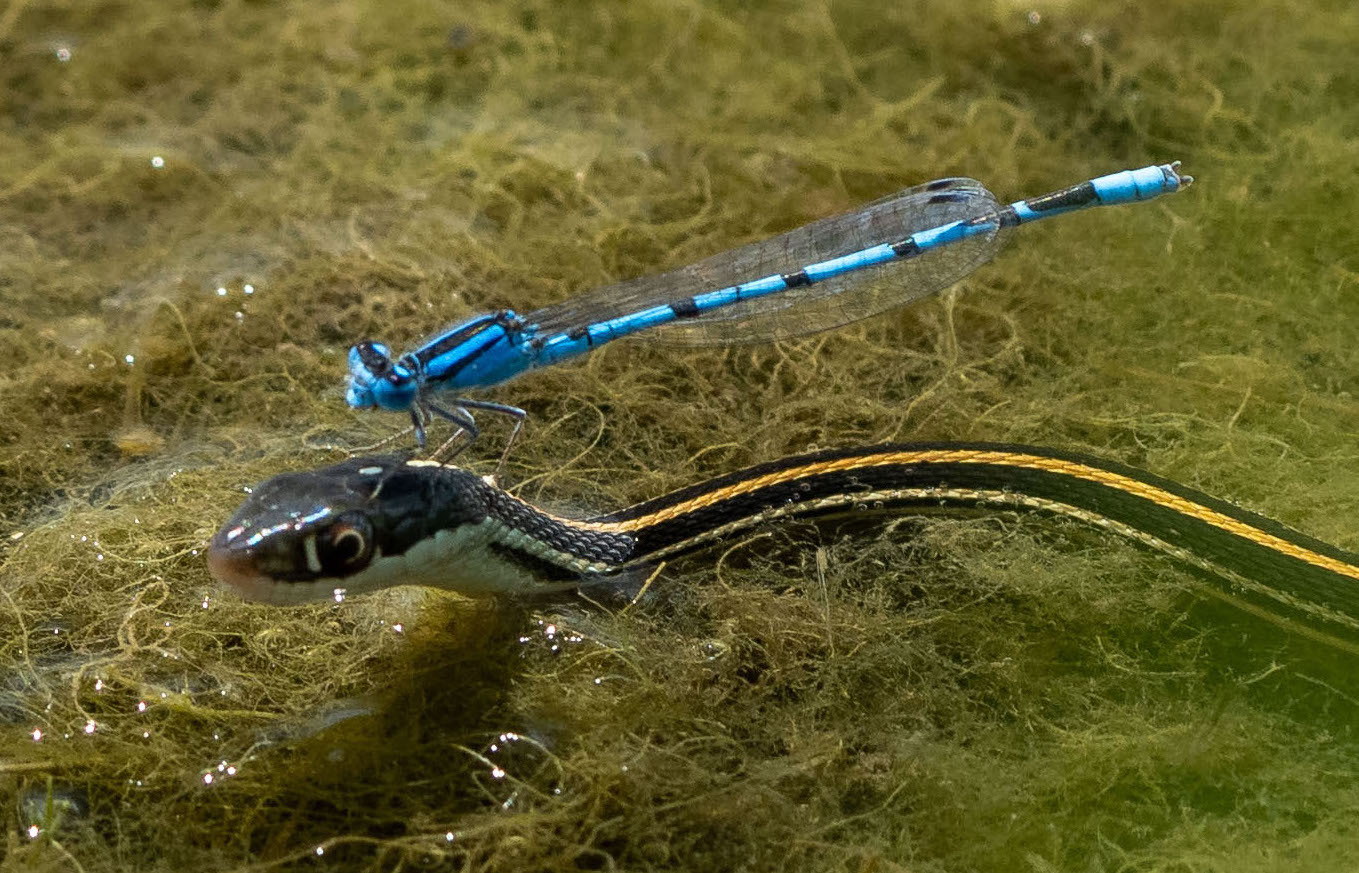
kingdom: Animalia
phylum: Arthropoda
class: Insecta
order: Odonata
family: Coenagrionidae
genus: Enallagma
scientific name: Enallagma civile
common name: Damselfly
